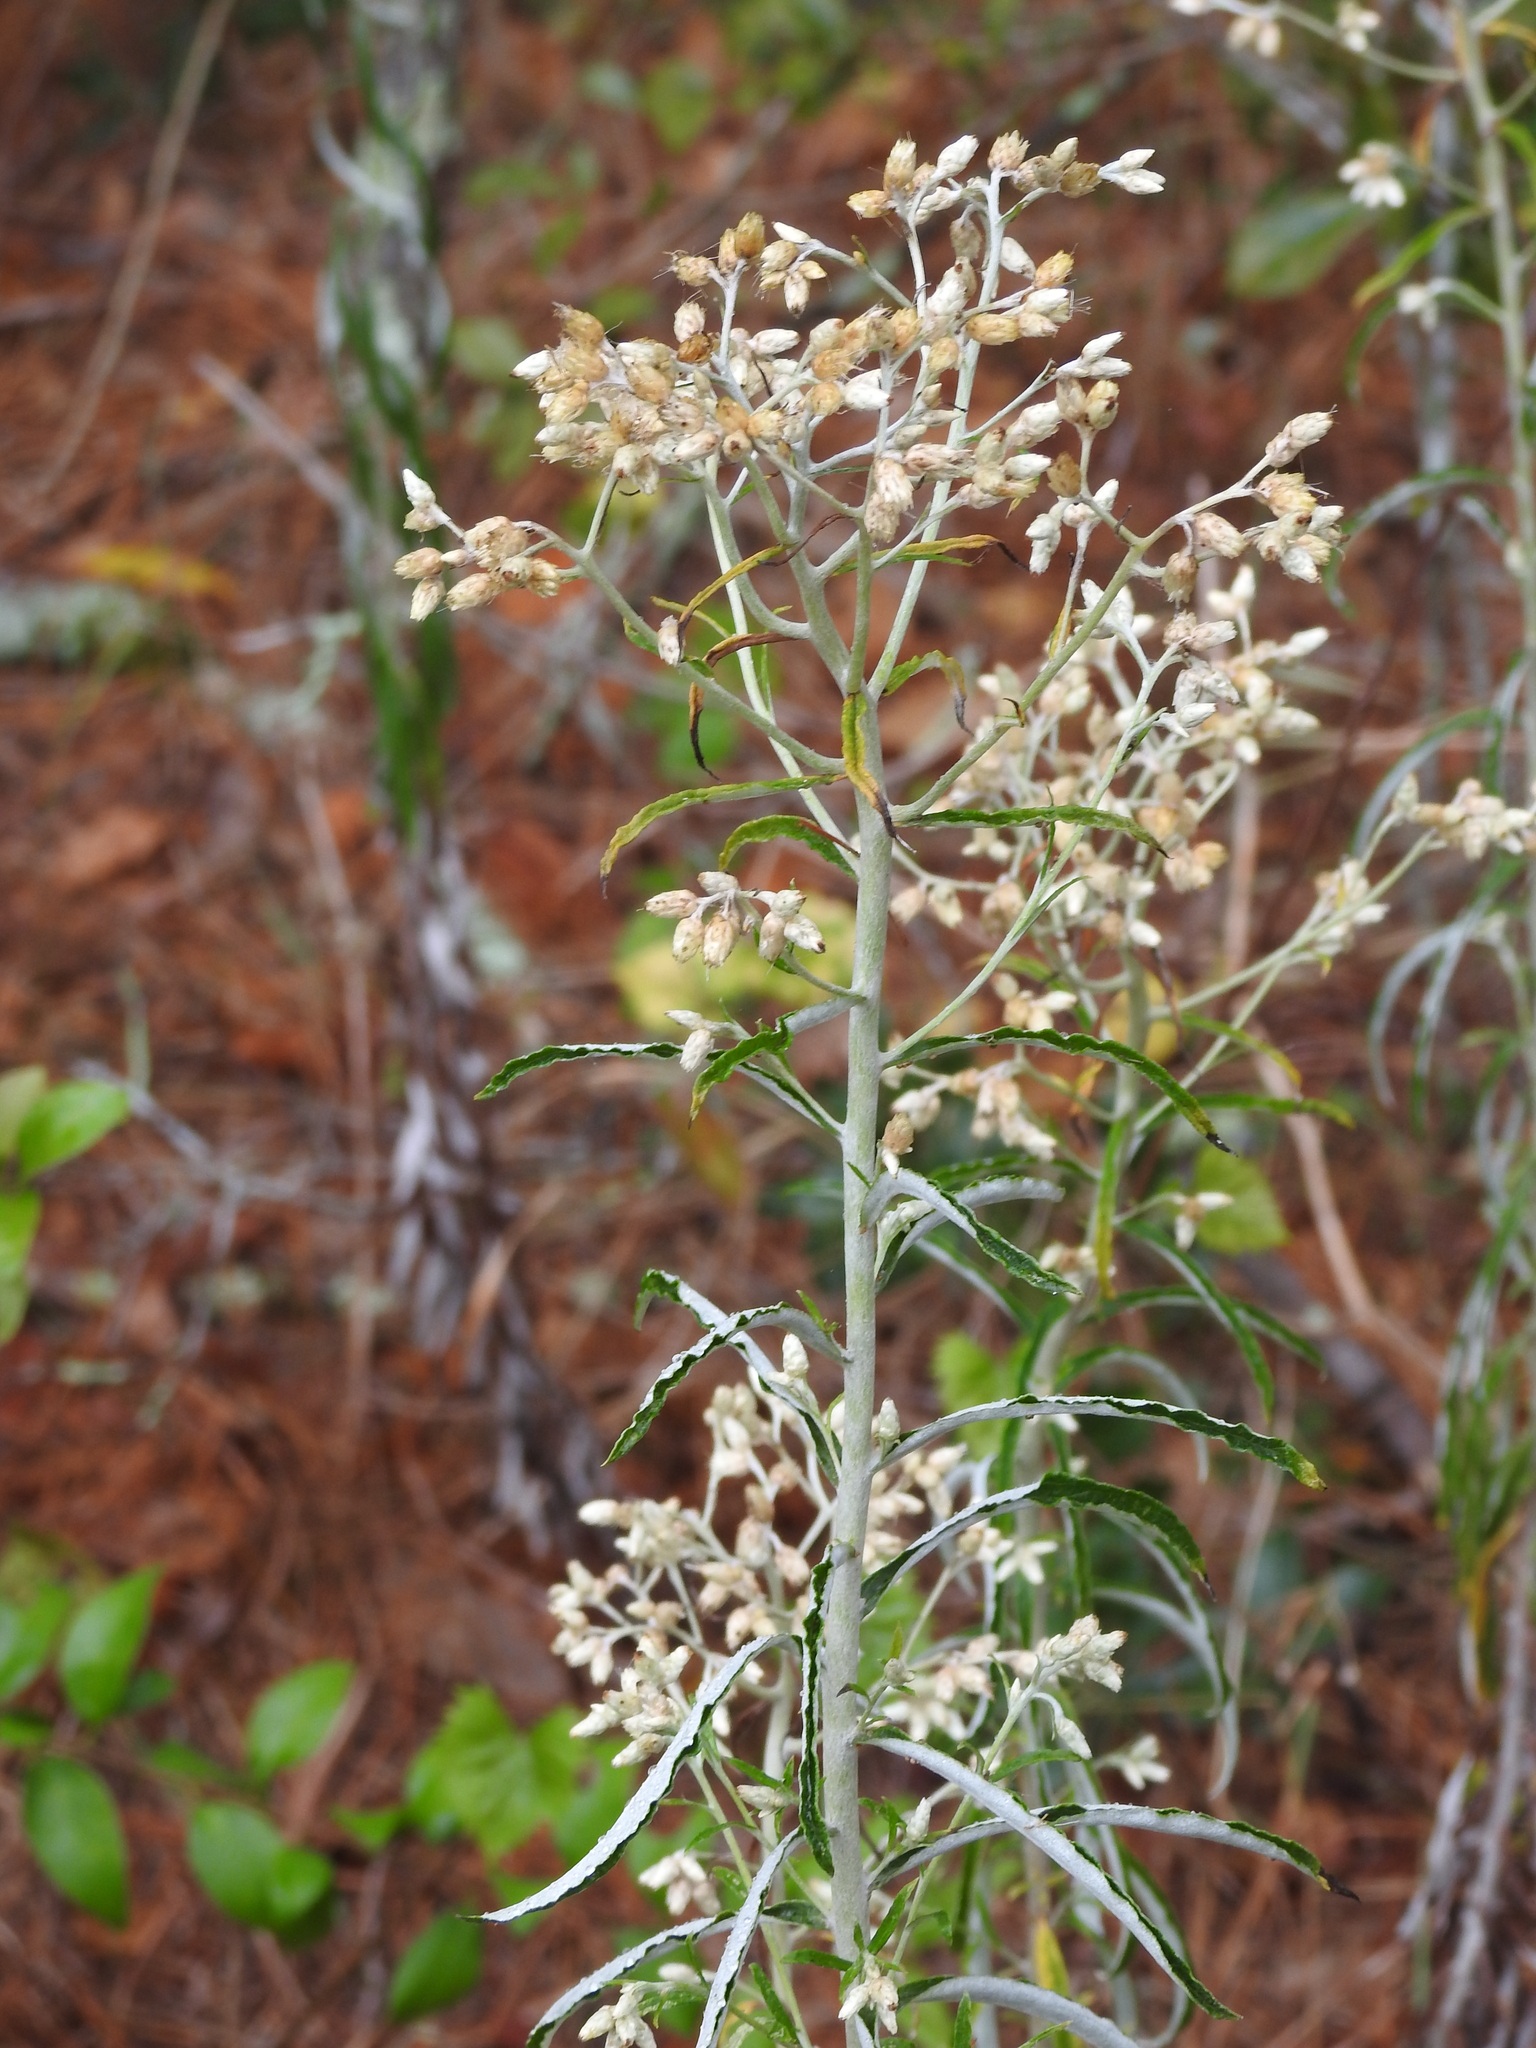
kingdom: Plantae
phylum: Tracheophyta
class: Magnoliopsida
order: Asterales
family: Asteraceae
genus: Pseudognaphalium
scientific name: Pseudognaphalium obtusifolium
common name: Eastern rabbit-tobacco
